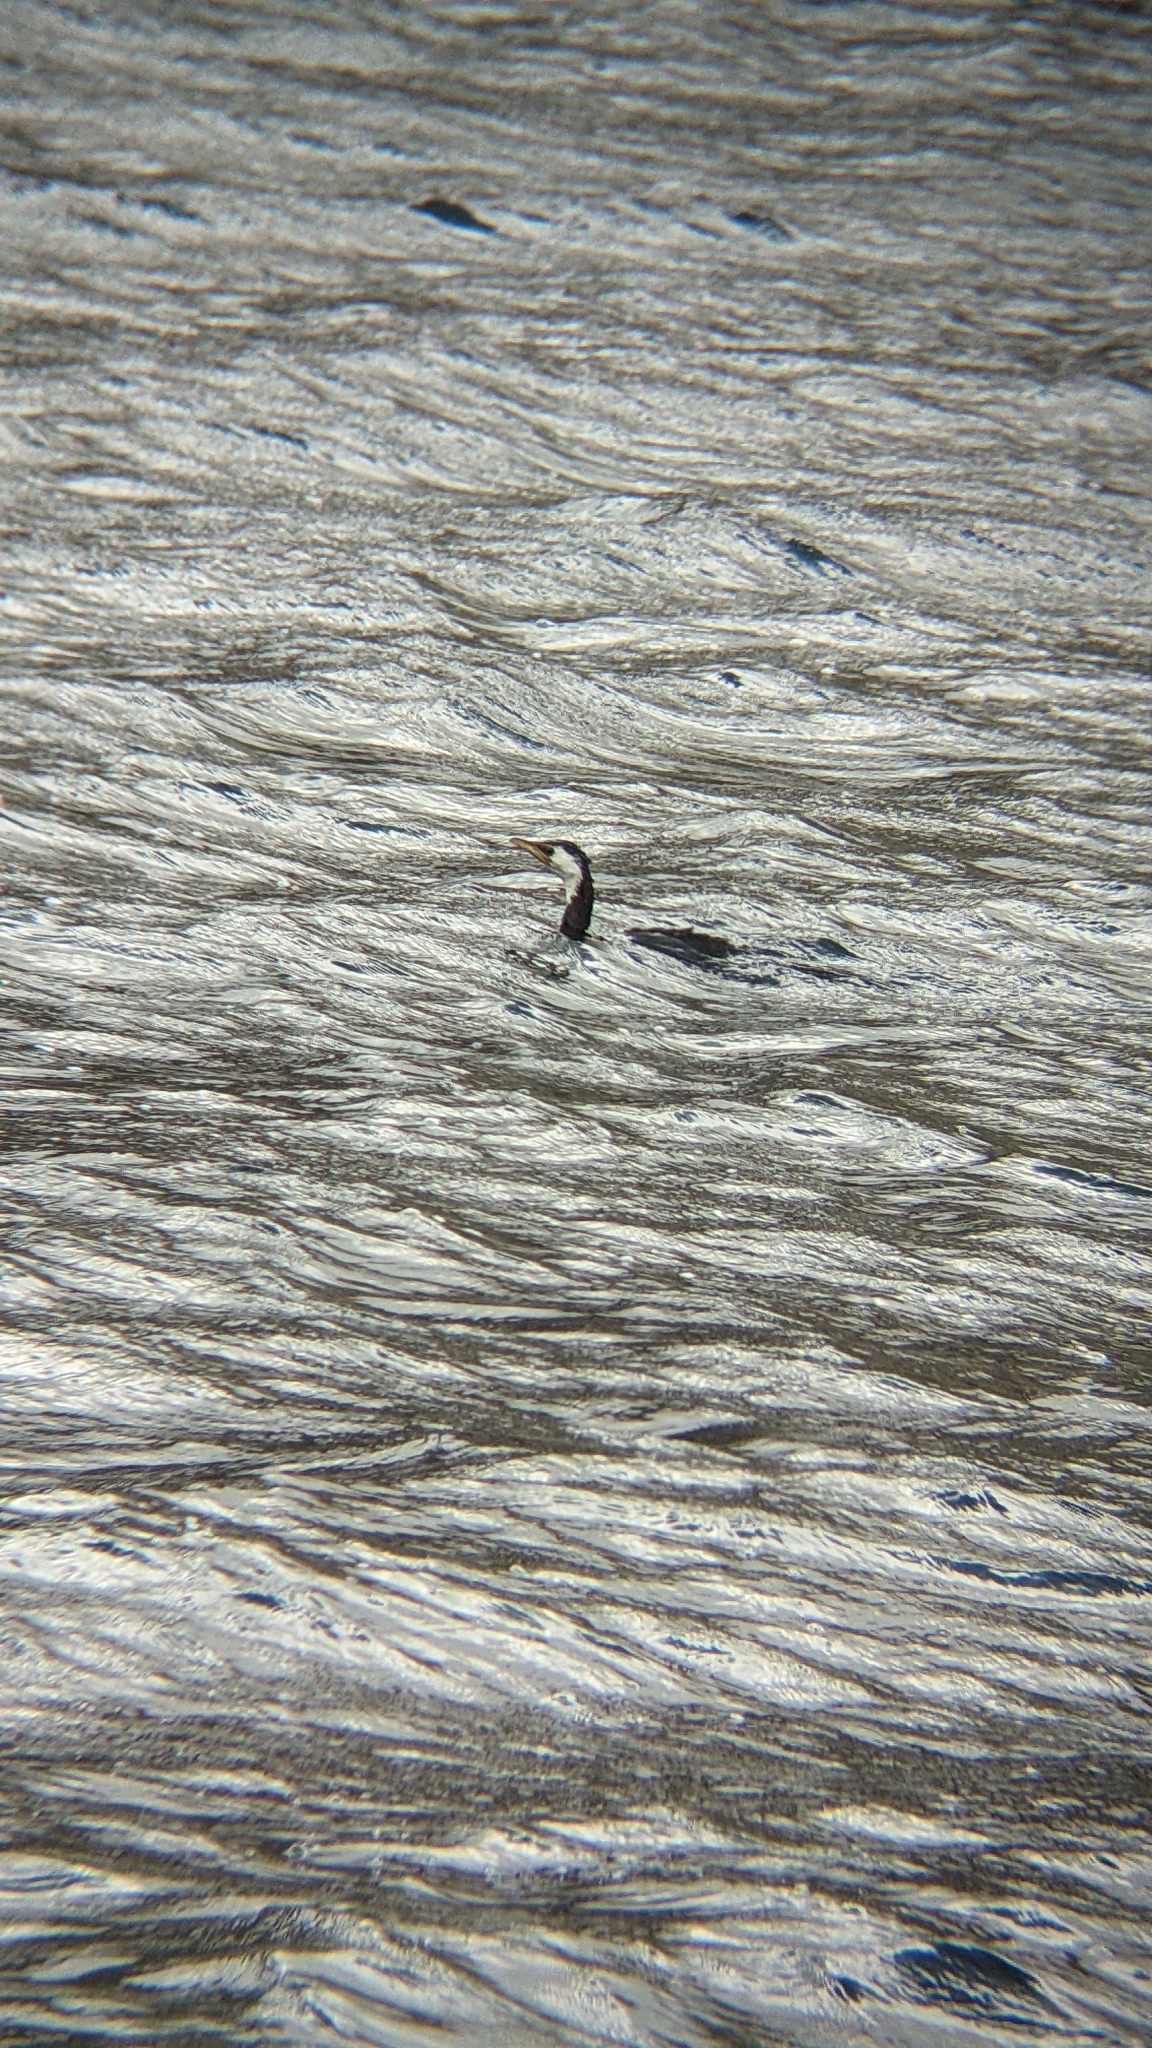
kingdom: Animalia
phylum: Chordata
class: Aves
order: Suliformes
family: Phalacrocoracidae
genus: Microcarbo
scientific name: Microcarbo melanoleucos
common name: Little pied cormorant
